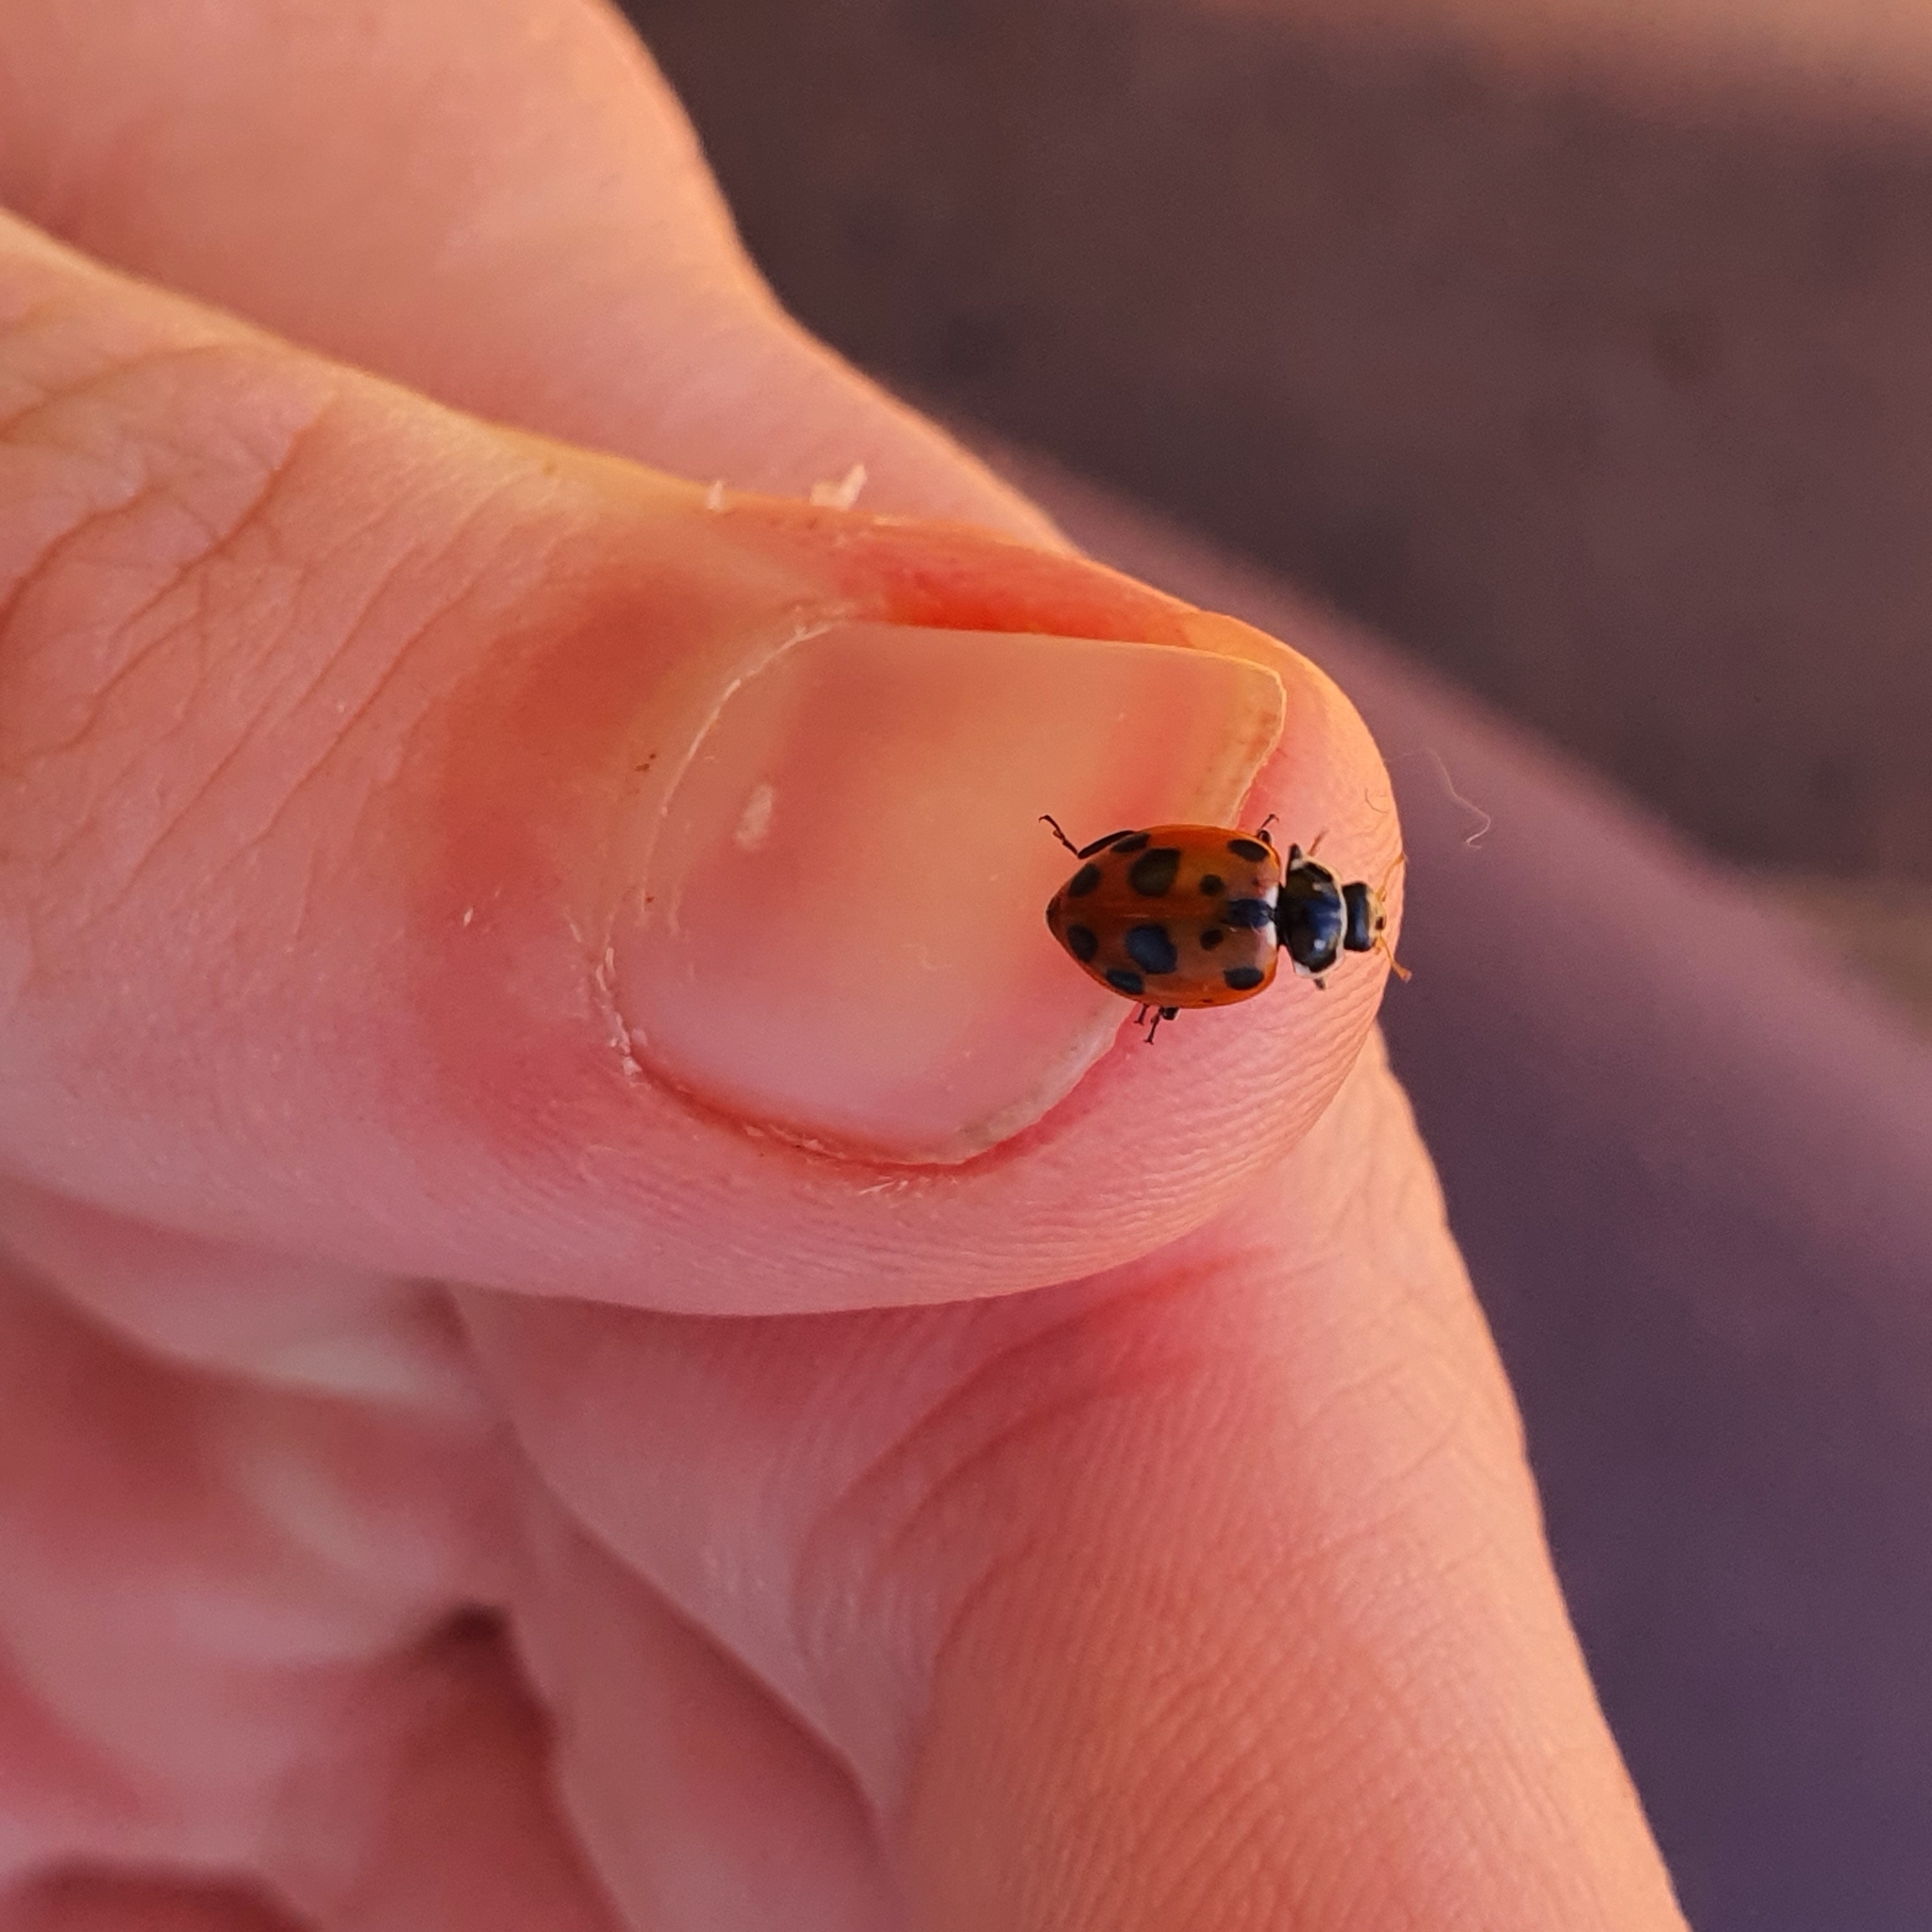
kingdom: Animalia
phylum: Arthropoda
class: Insecta
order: Coleoptera
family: Coccinellidae
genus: Hippodamia
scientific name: Hippodamia variegata
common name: Ladybird beetle
